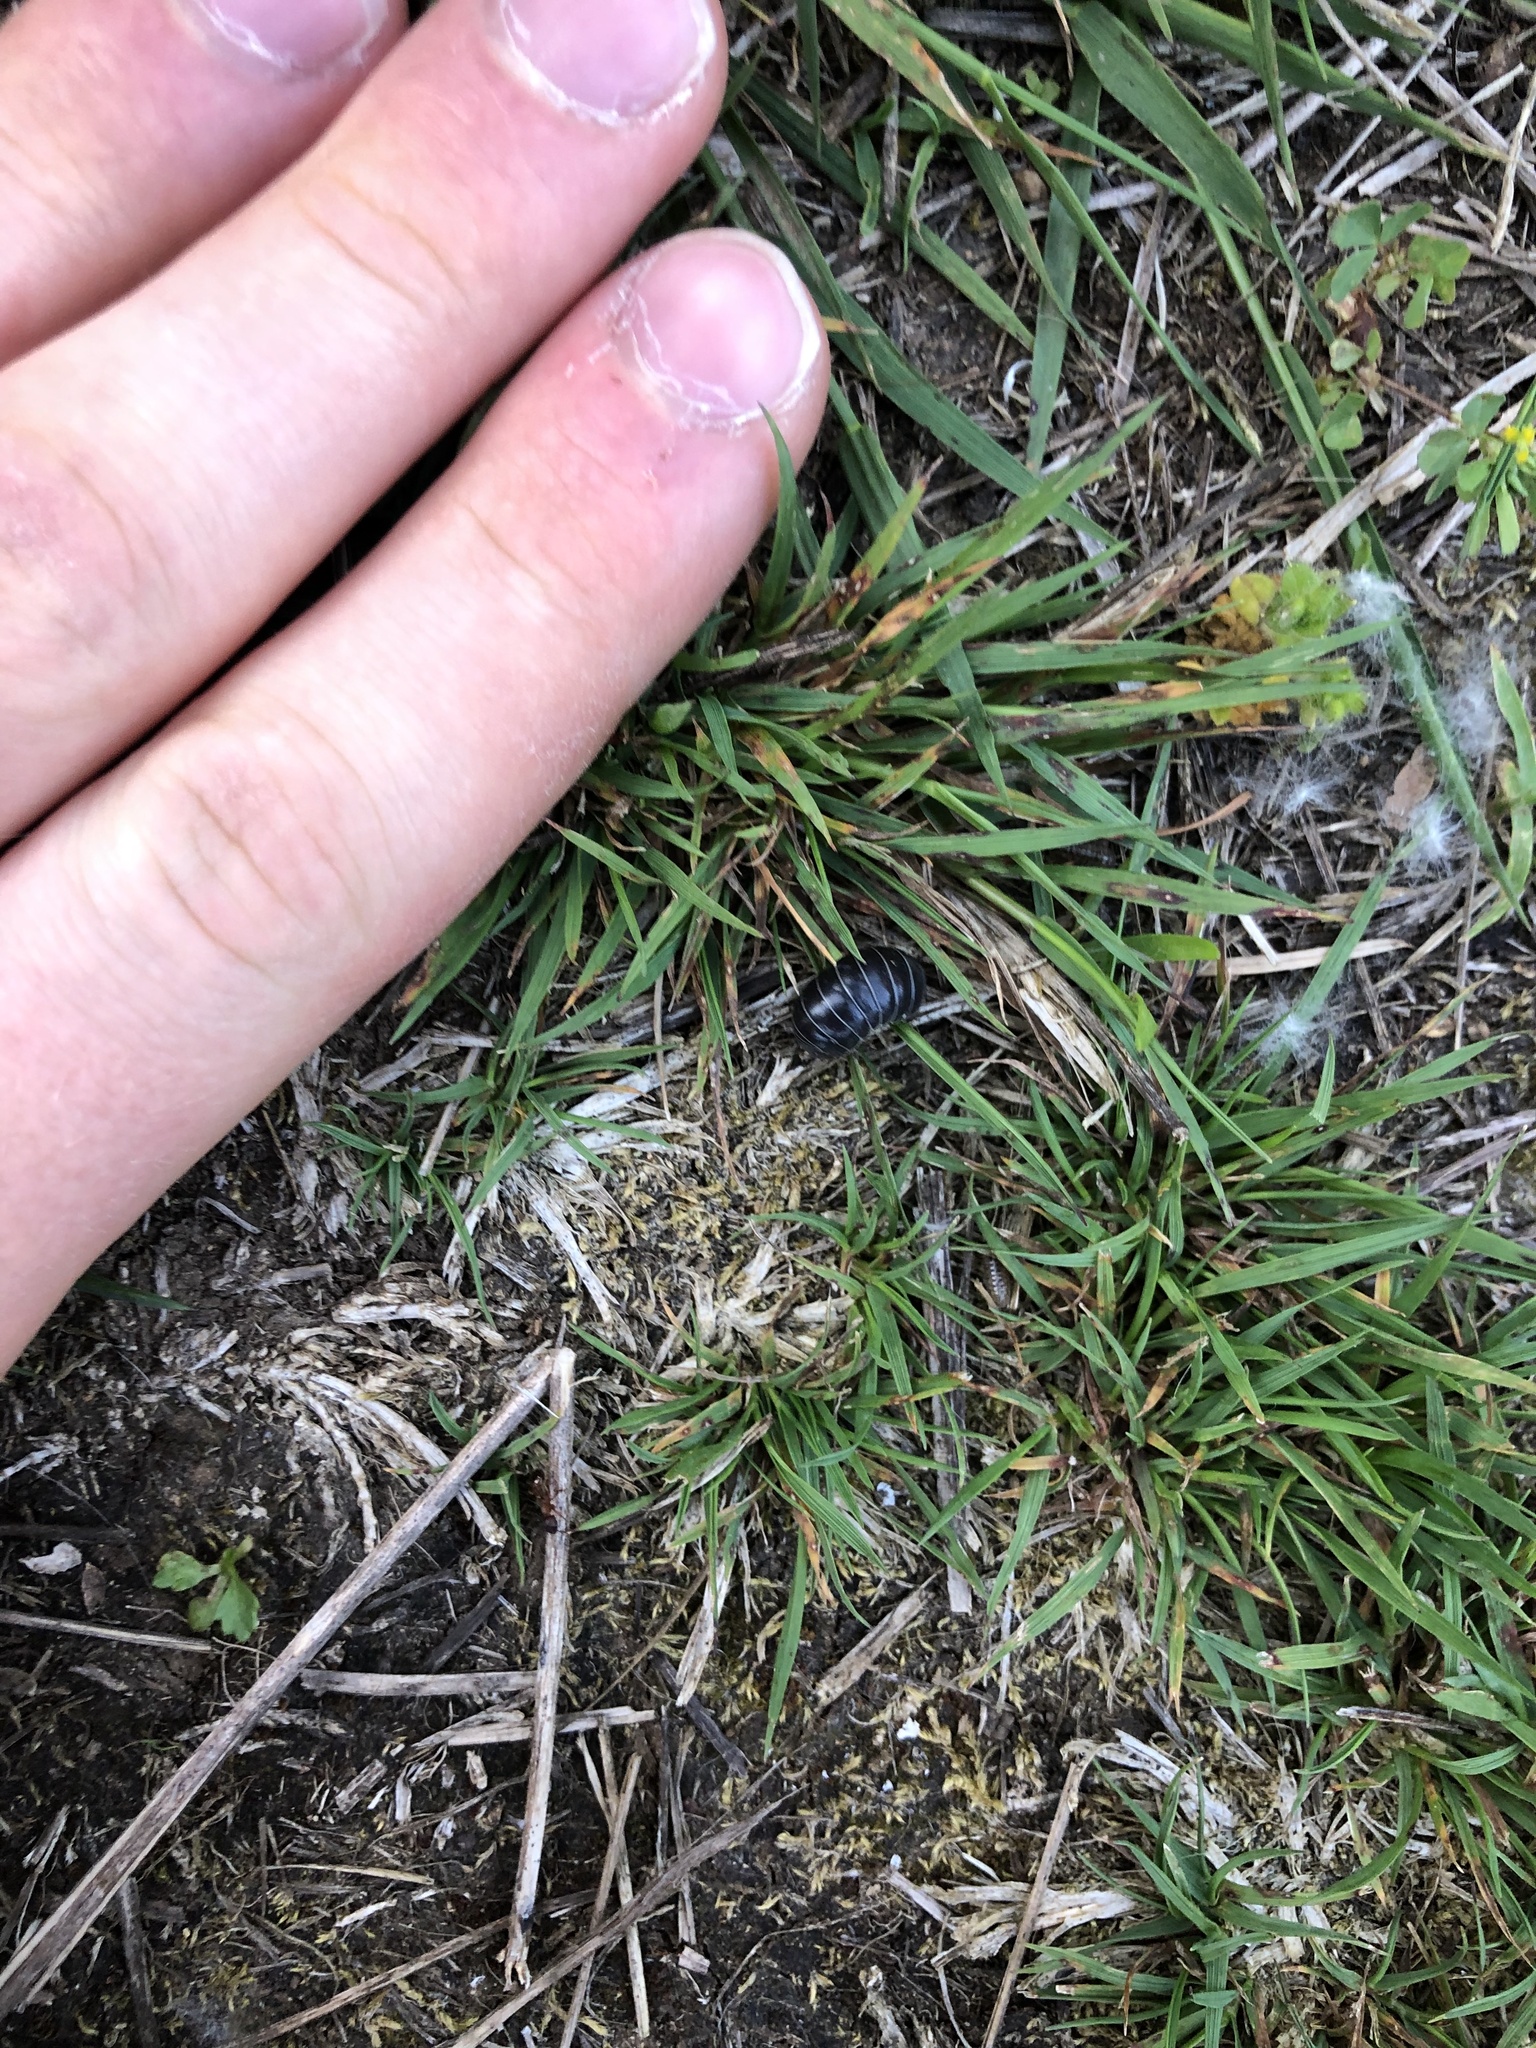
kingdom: Animalia
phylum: Arthropoda
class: Malacostraca
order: Isopoda
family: Armadillidiidae
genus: Armadillidium
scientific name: Armadillidium vulgare
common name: Common pill woodlouse
